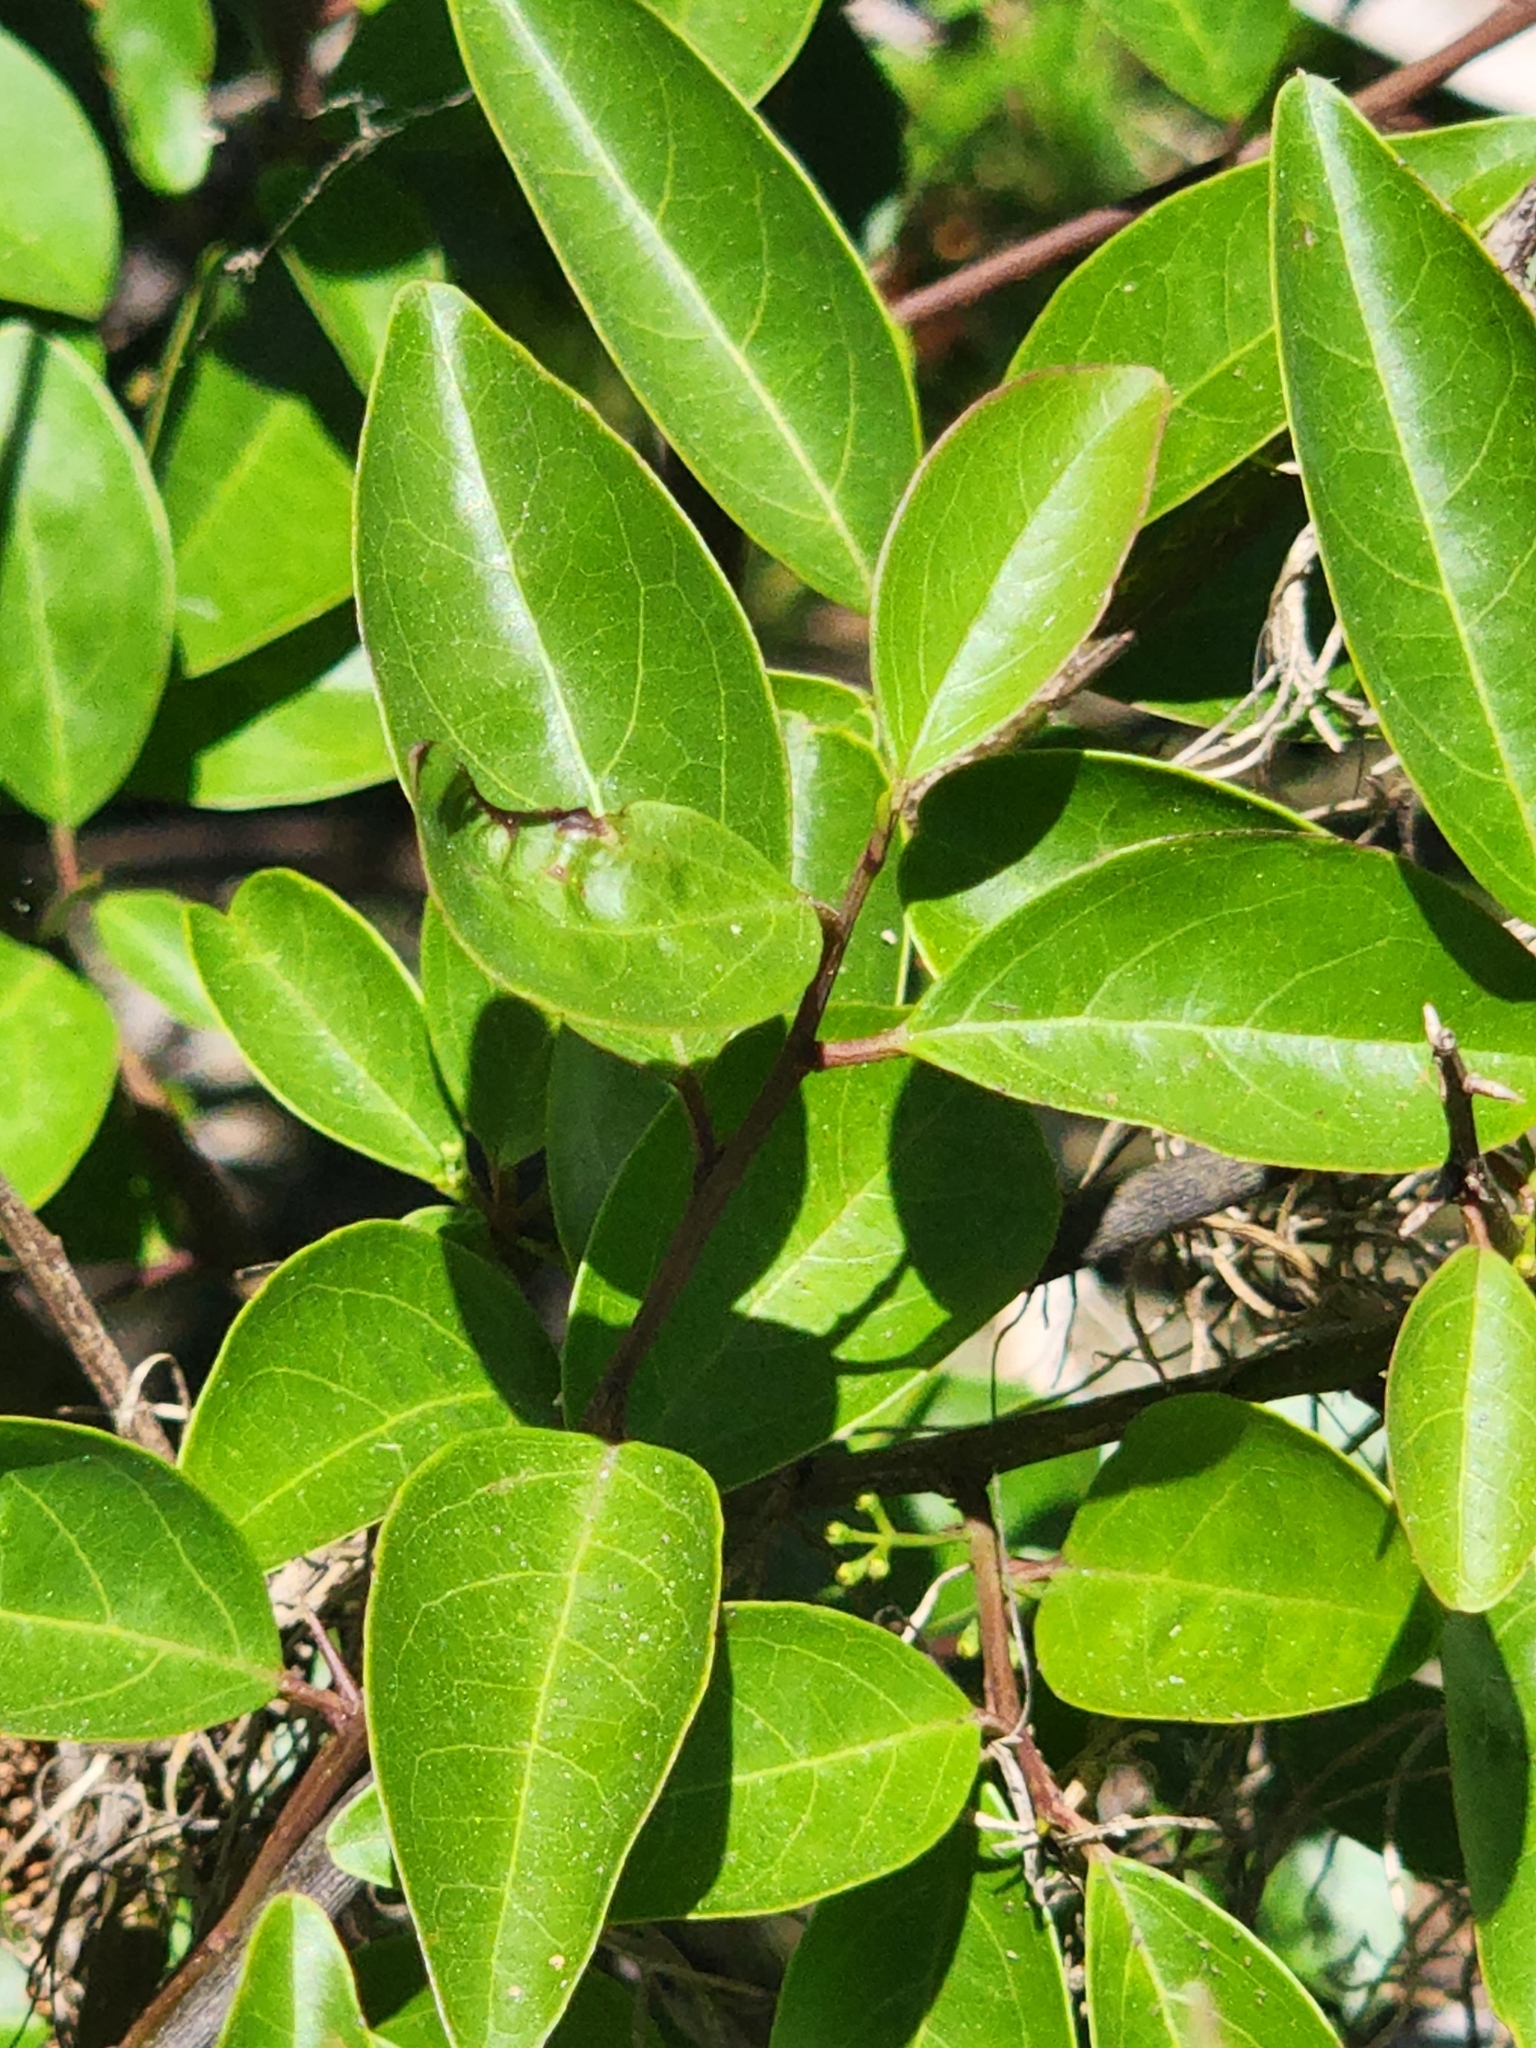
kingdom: Plantae
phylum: Tracheophyta
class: Magnoliopsida
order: Santalales
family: Ximeniaceae
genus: Ximenia
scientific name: Ximenia americana
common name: Tallowwood
